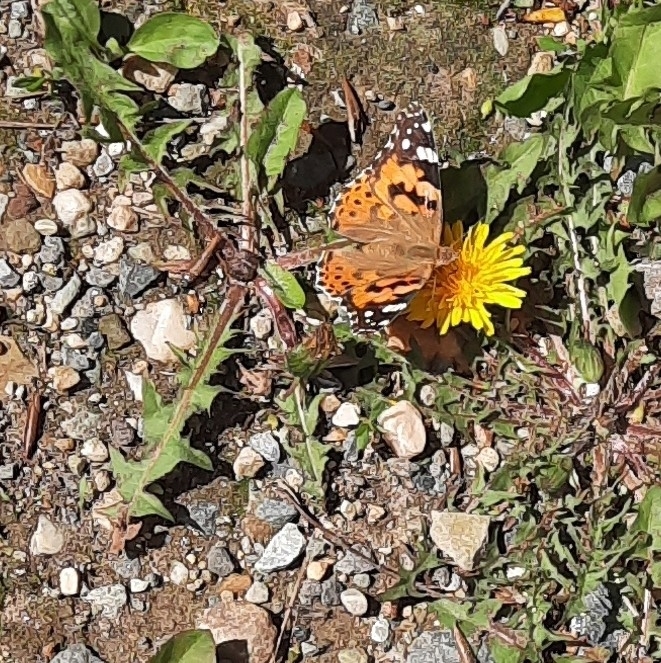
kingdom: Animalia
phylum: Arthropoda
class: Insecta
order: Lepidoptera
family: Nymphalidae
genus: Vanessa
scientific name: Vanessa cardui
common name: Painted lady
